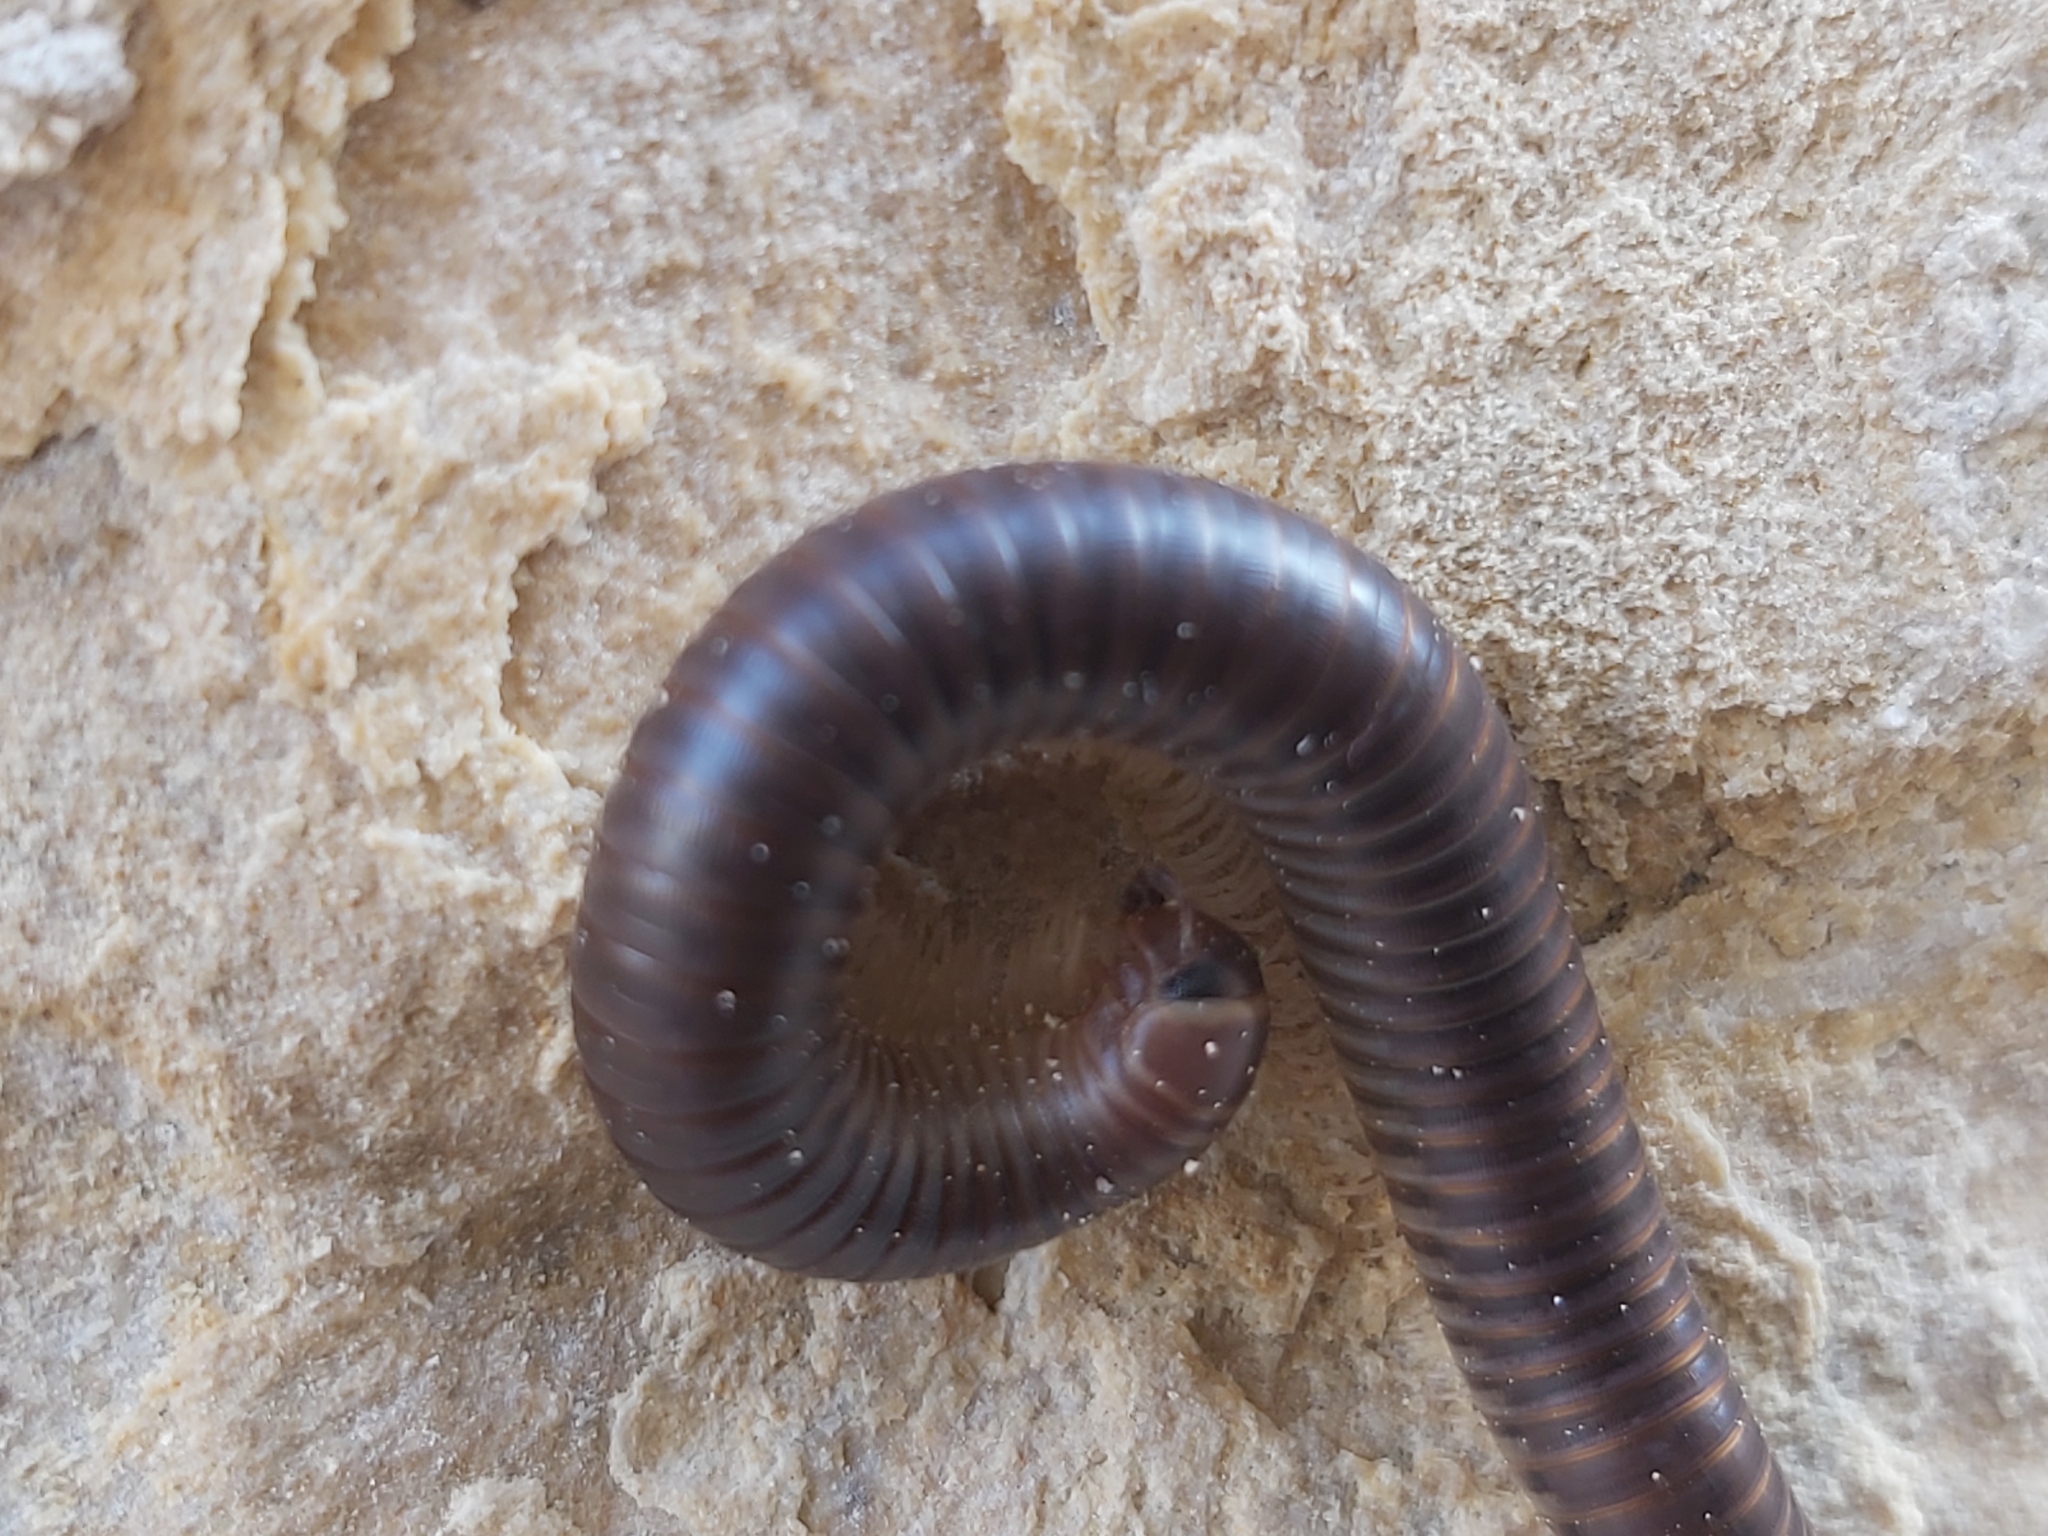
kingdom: Animalia
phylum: Arthropoda
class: Diplopoda
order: Julida
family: Julidae
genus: Pachyiulus
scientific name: Pachyiulus flavipes
